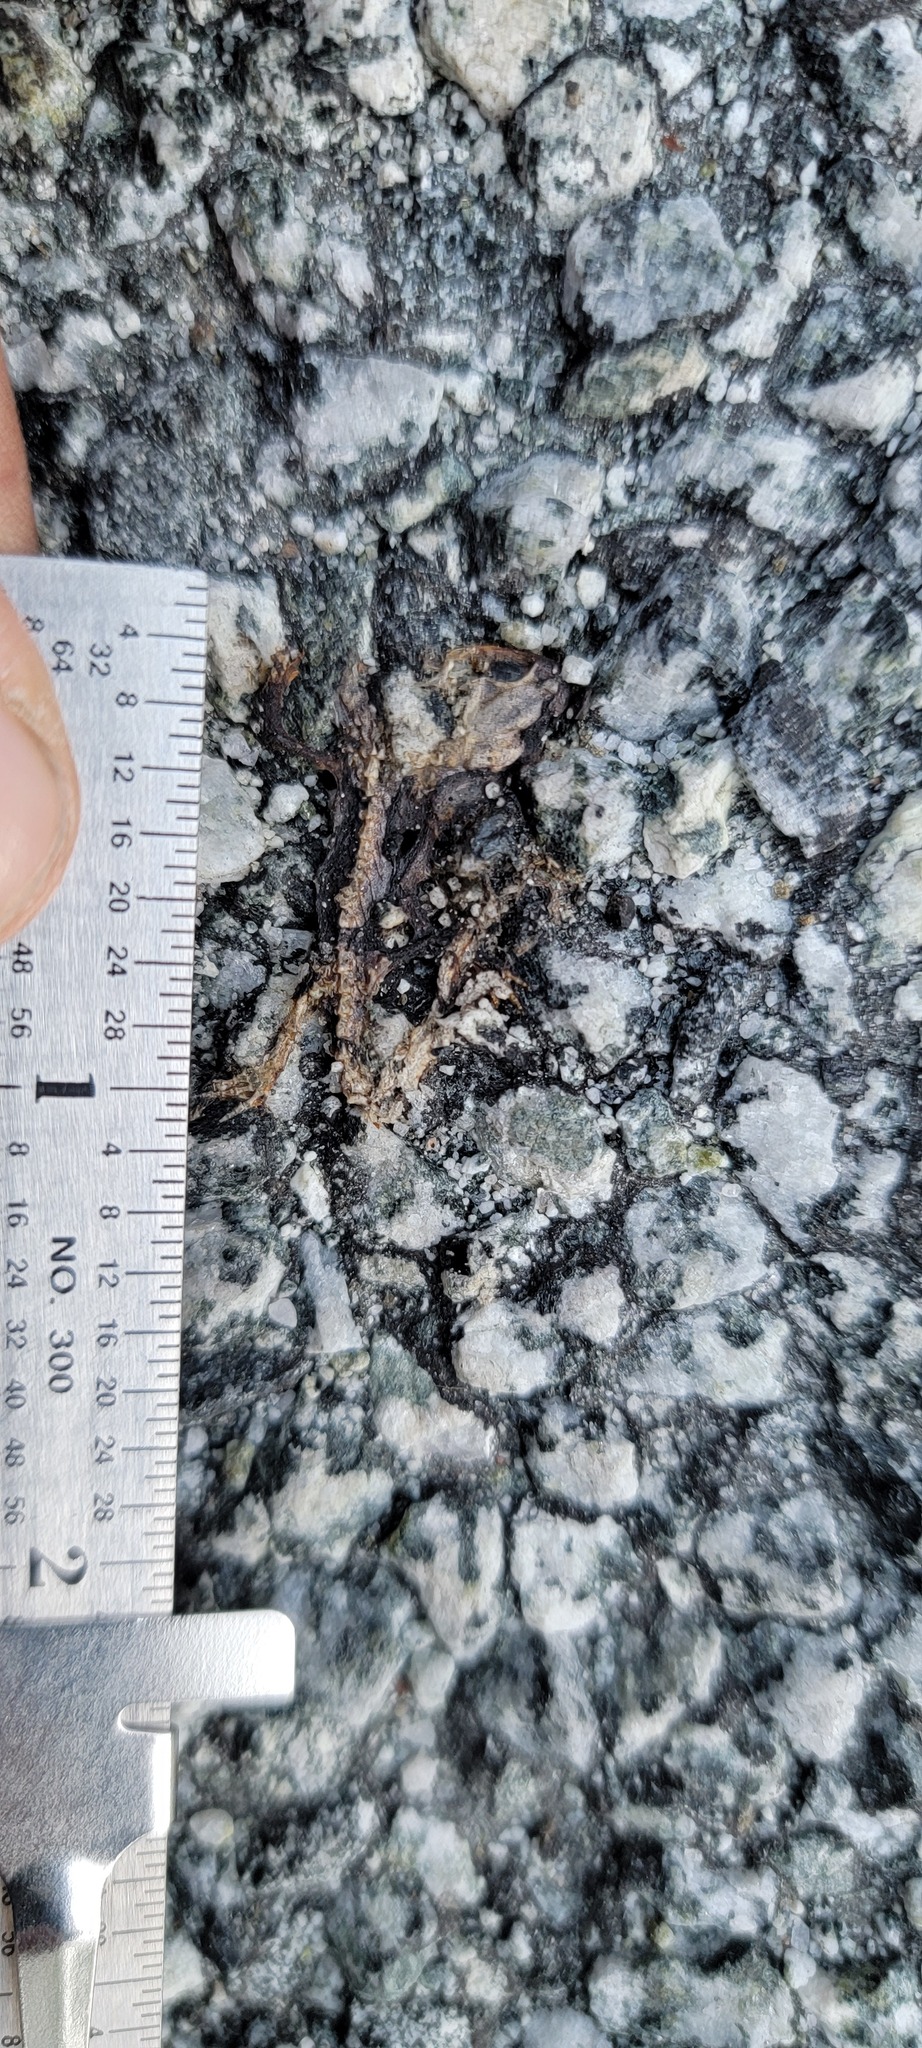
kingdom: Animalia
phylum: Chordata
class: Amphibia
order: Caudata
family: Salamandridae
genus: Taricha
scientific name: Taricha
